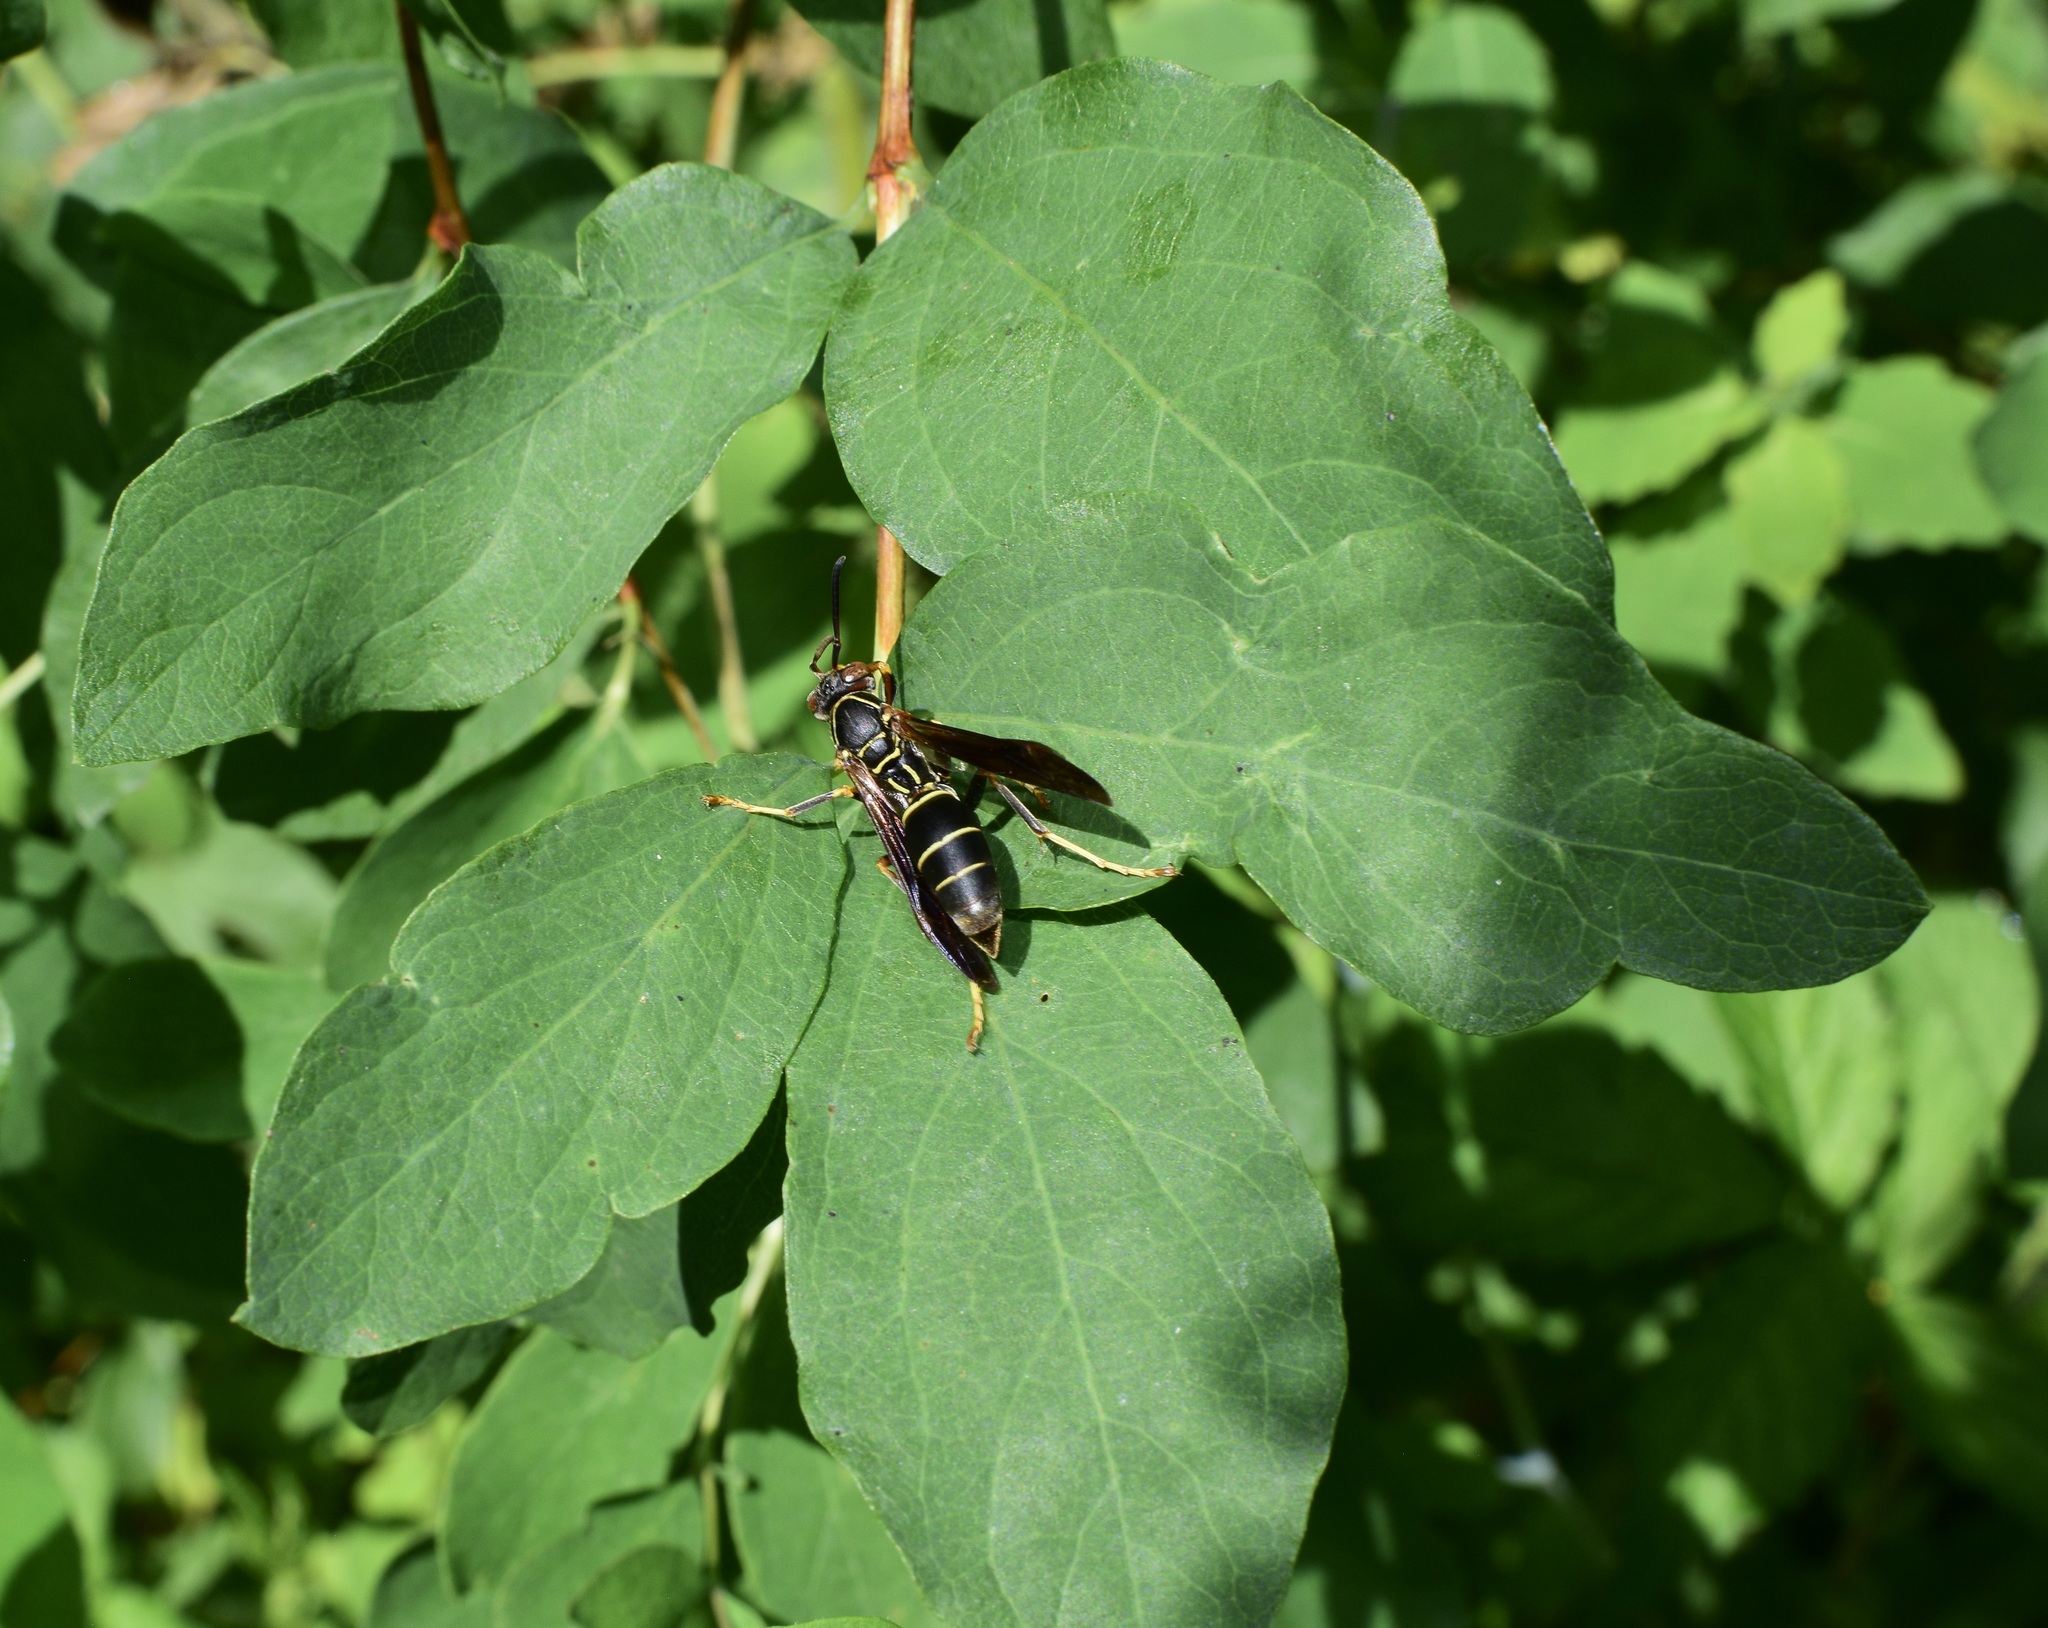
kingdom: Animalia
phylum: Arthropoda
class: Insecta
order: Hymenoptera
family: Eumenidae
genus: Polistes
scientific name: Polistes fuscatus
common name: Dark paper wasp
